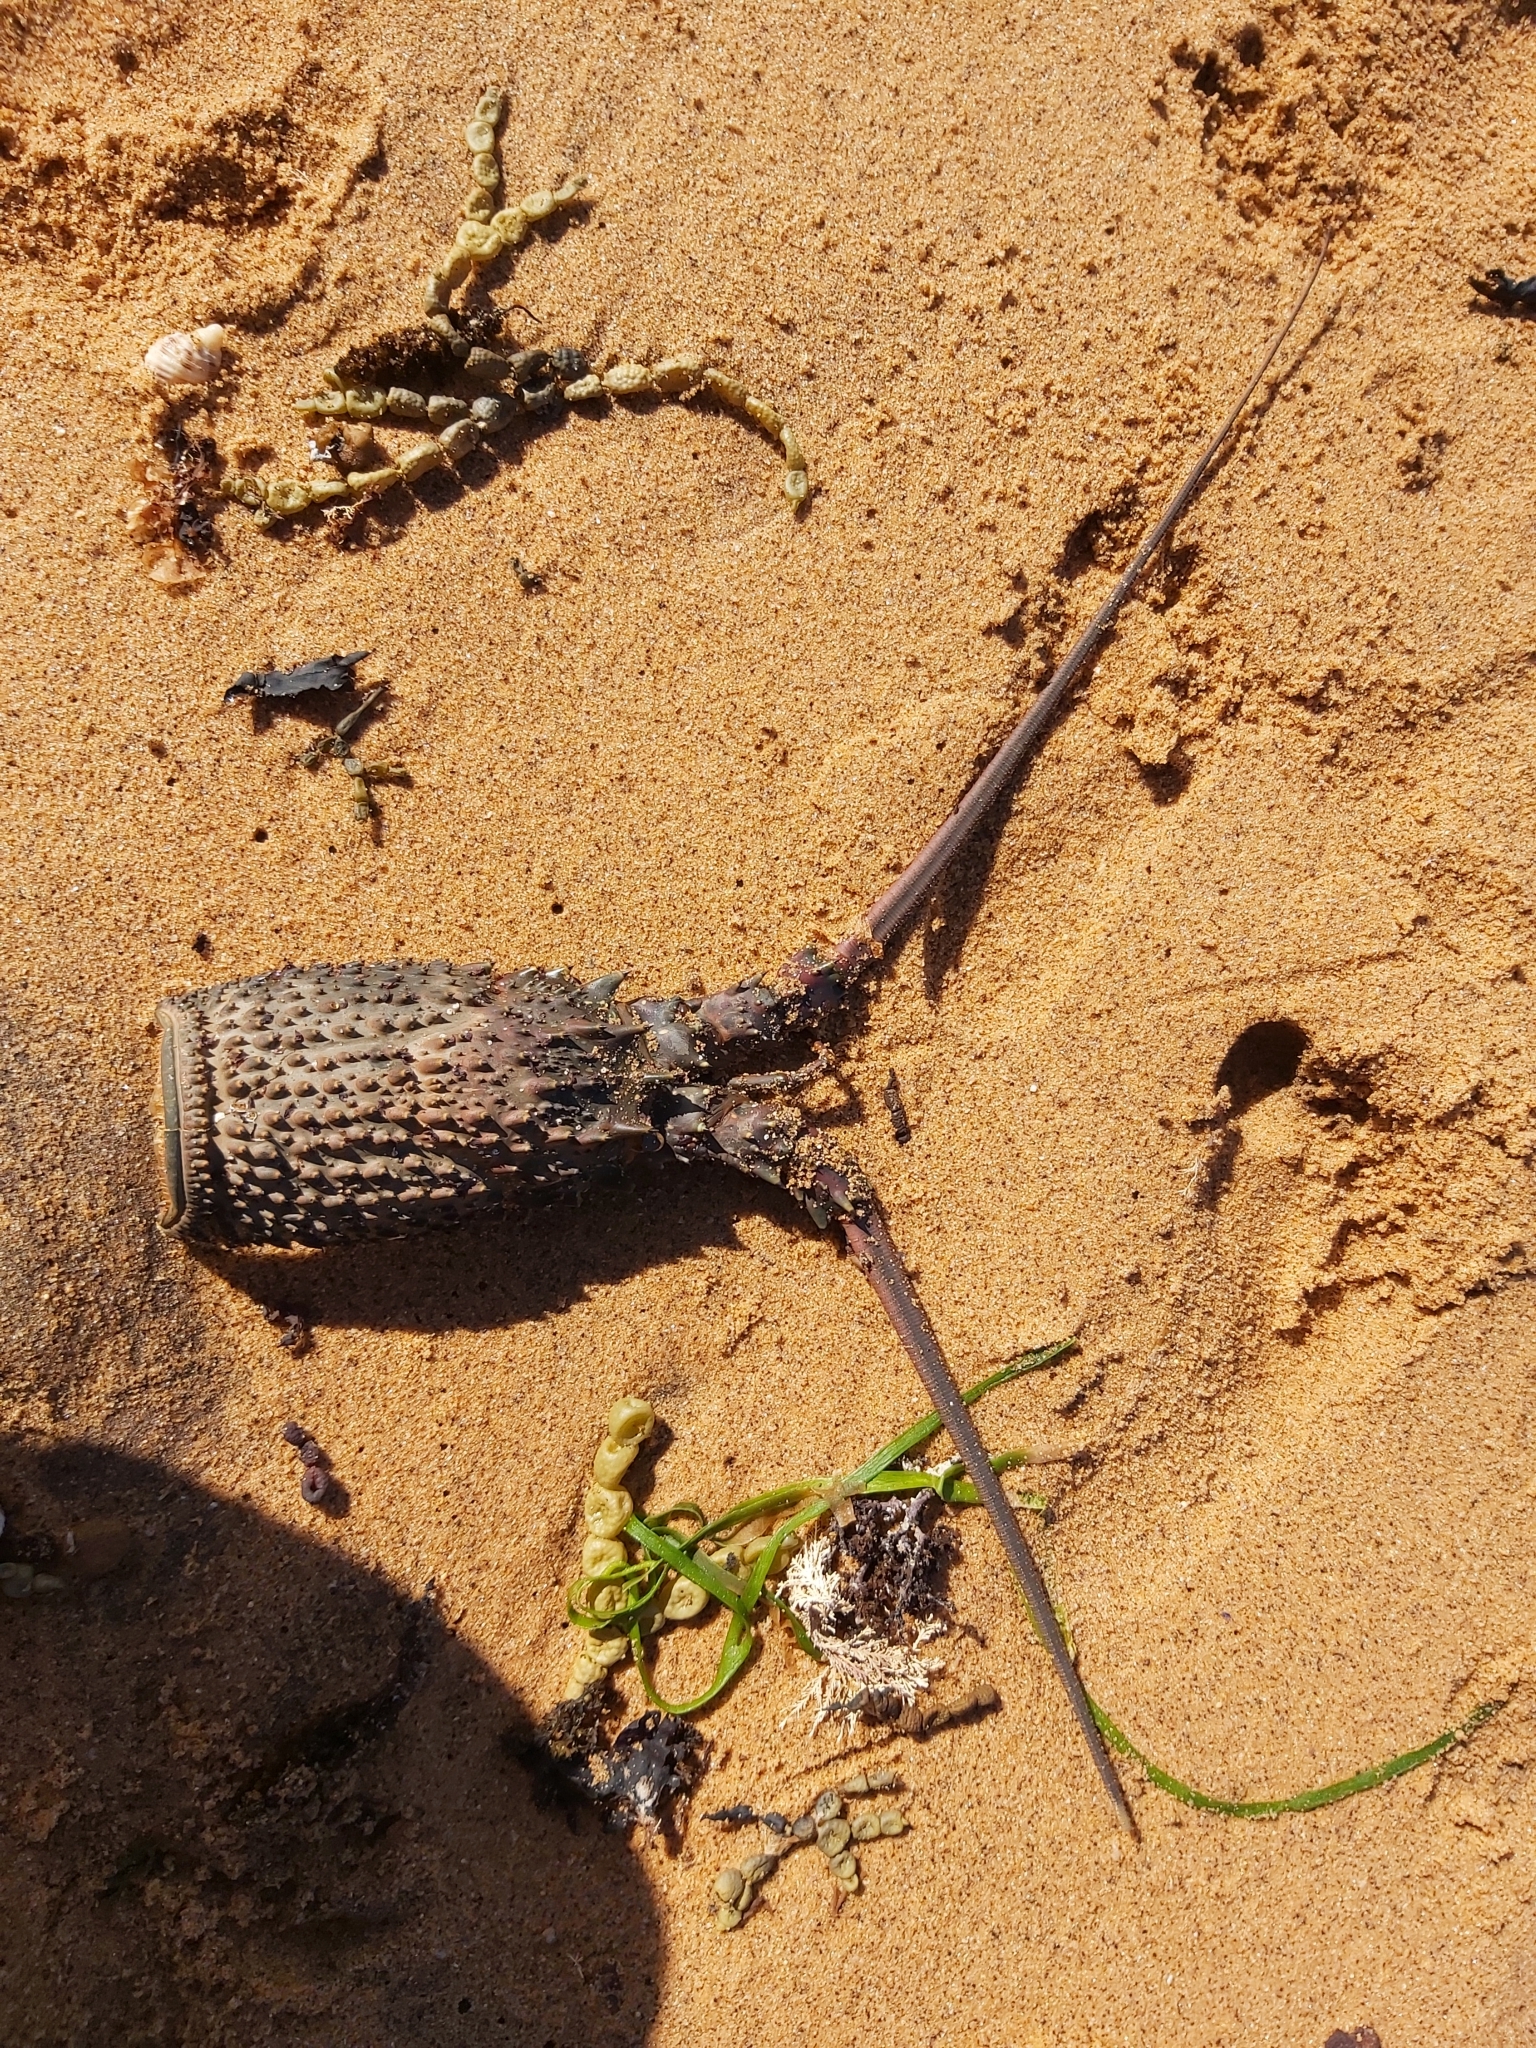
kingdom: Animalia
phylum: Arthropoda
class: Malacostraca
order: Decapoda
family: Palinuridae
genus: Sagmariasus
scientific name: Sagmariasus verreauxi
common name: Green rock lobster
